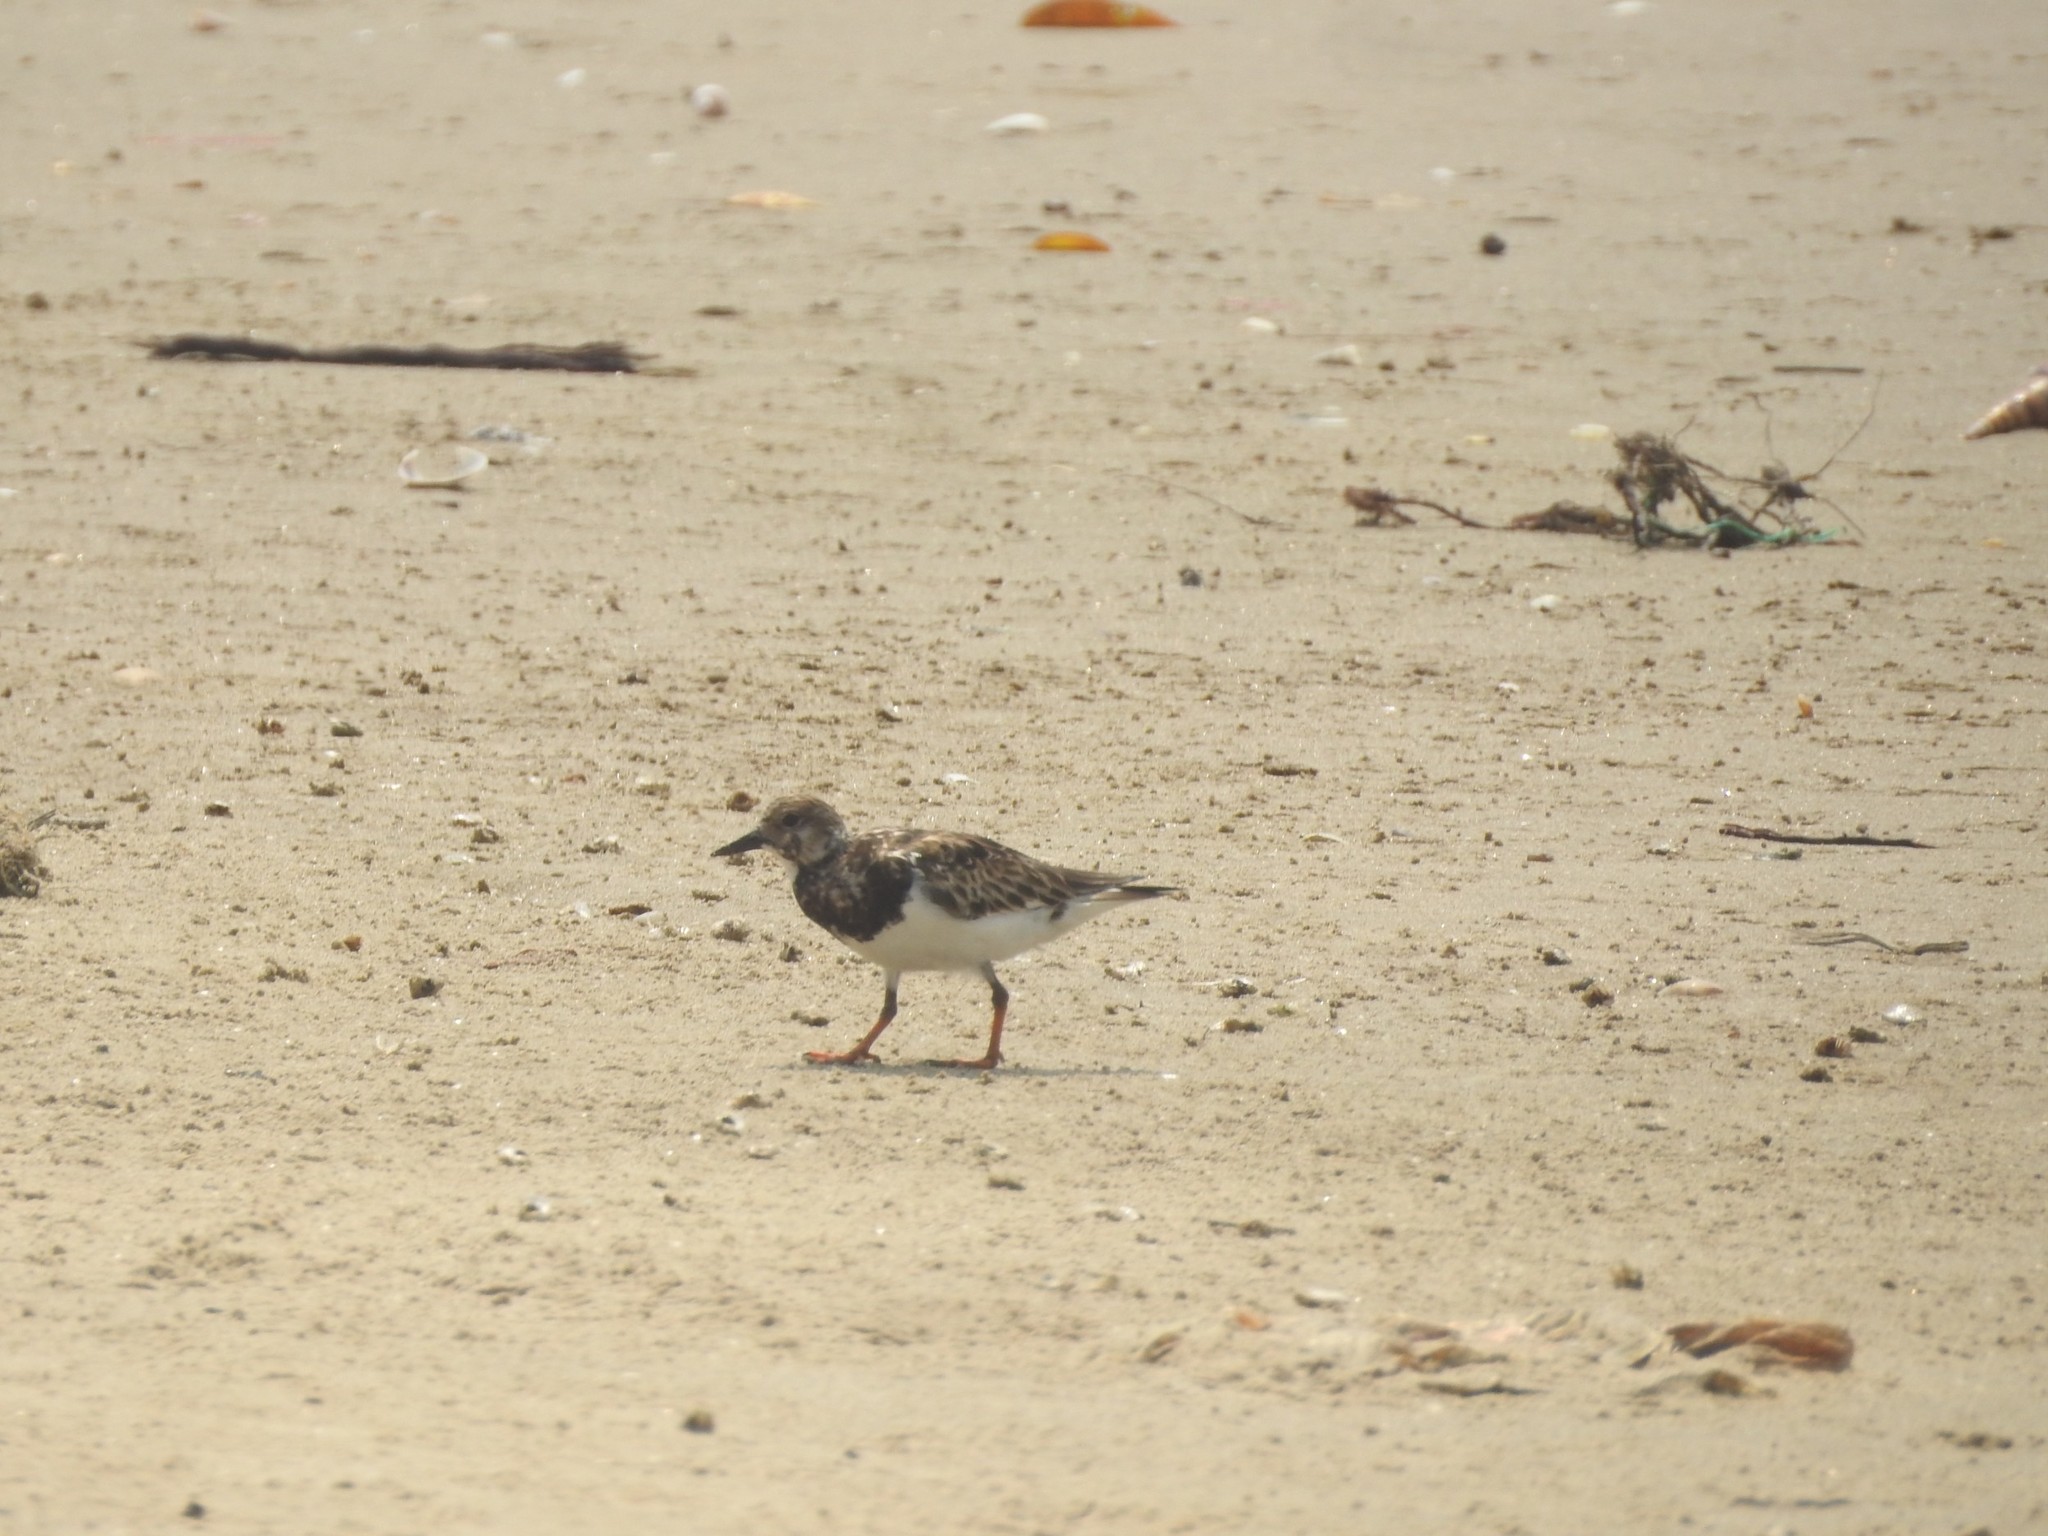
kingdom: Animalia
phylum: Chordata
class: Aves
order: Charadriiformes
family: Scolopacidae
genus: Arenaria
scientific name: Arenaria interpres
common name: Ruddy turnstone
